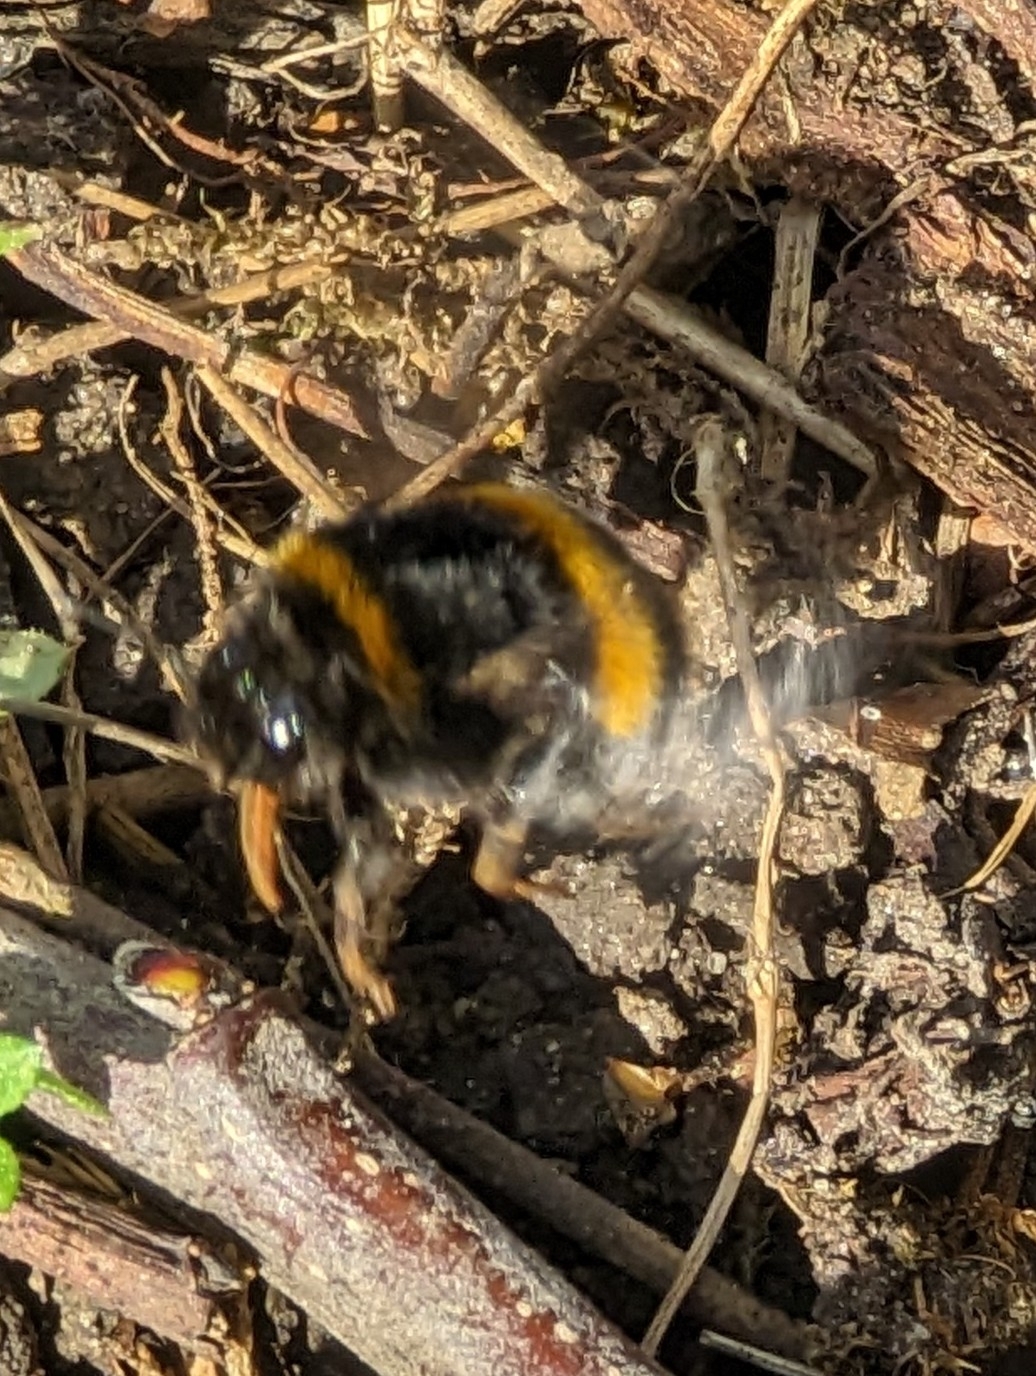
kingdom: Animalia
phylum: Arthropoda
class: Insecta
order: Hymenoptera
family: Apidae
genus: Bombus
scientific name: Bombus terrestris
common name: Buff-tailed bumblebee
